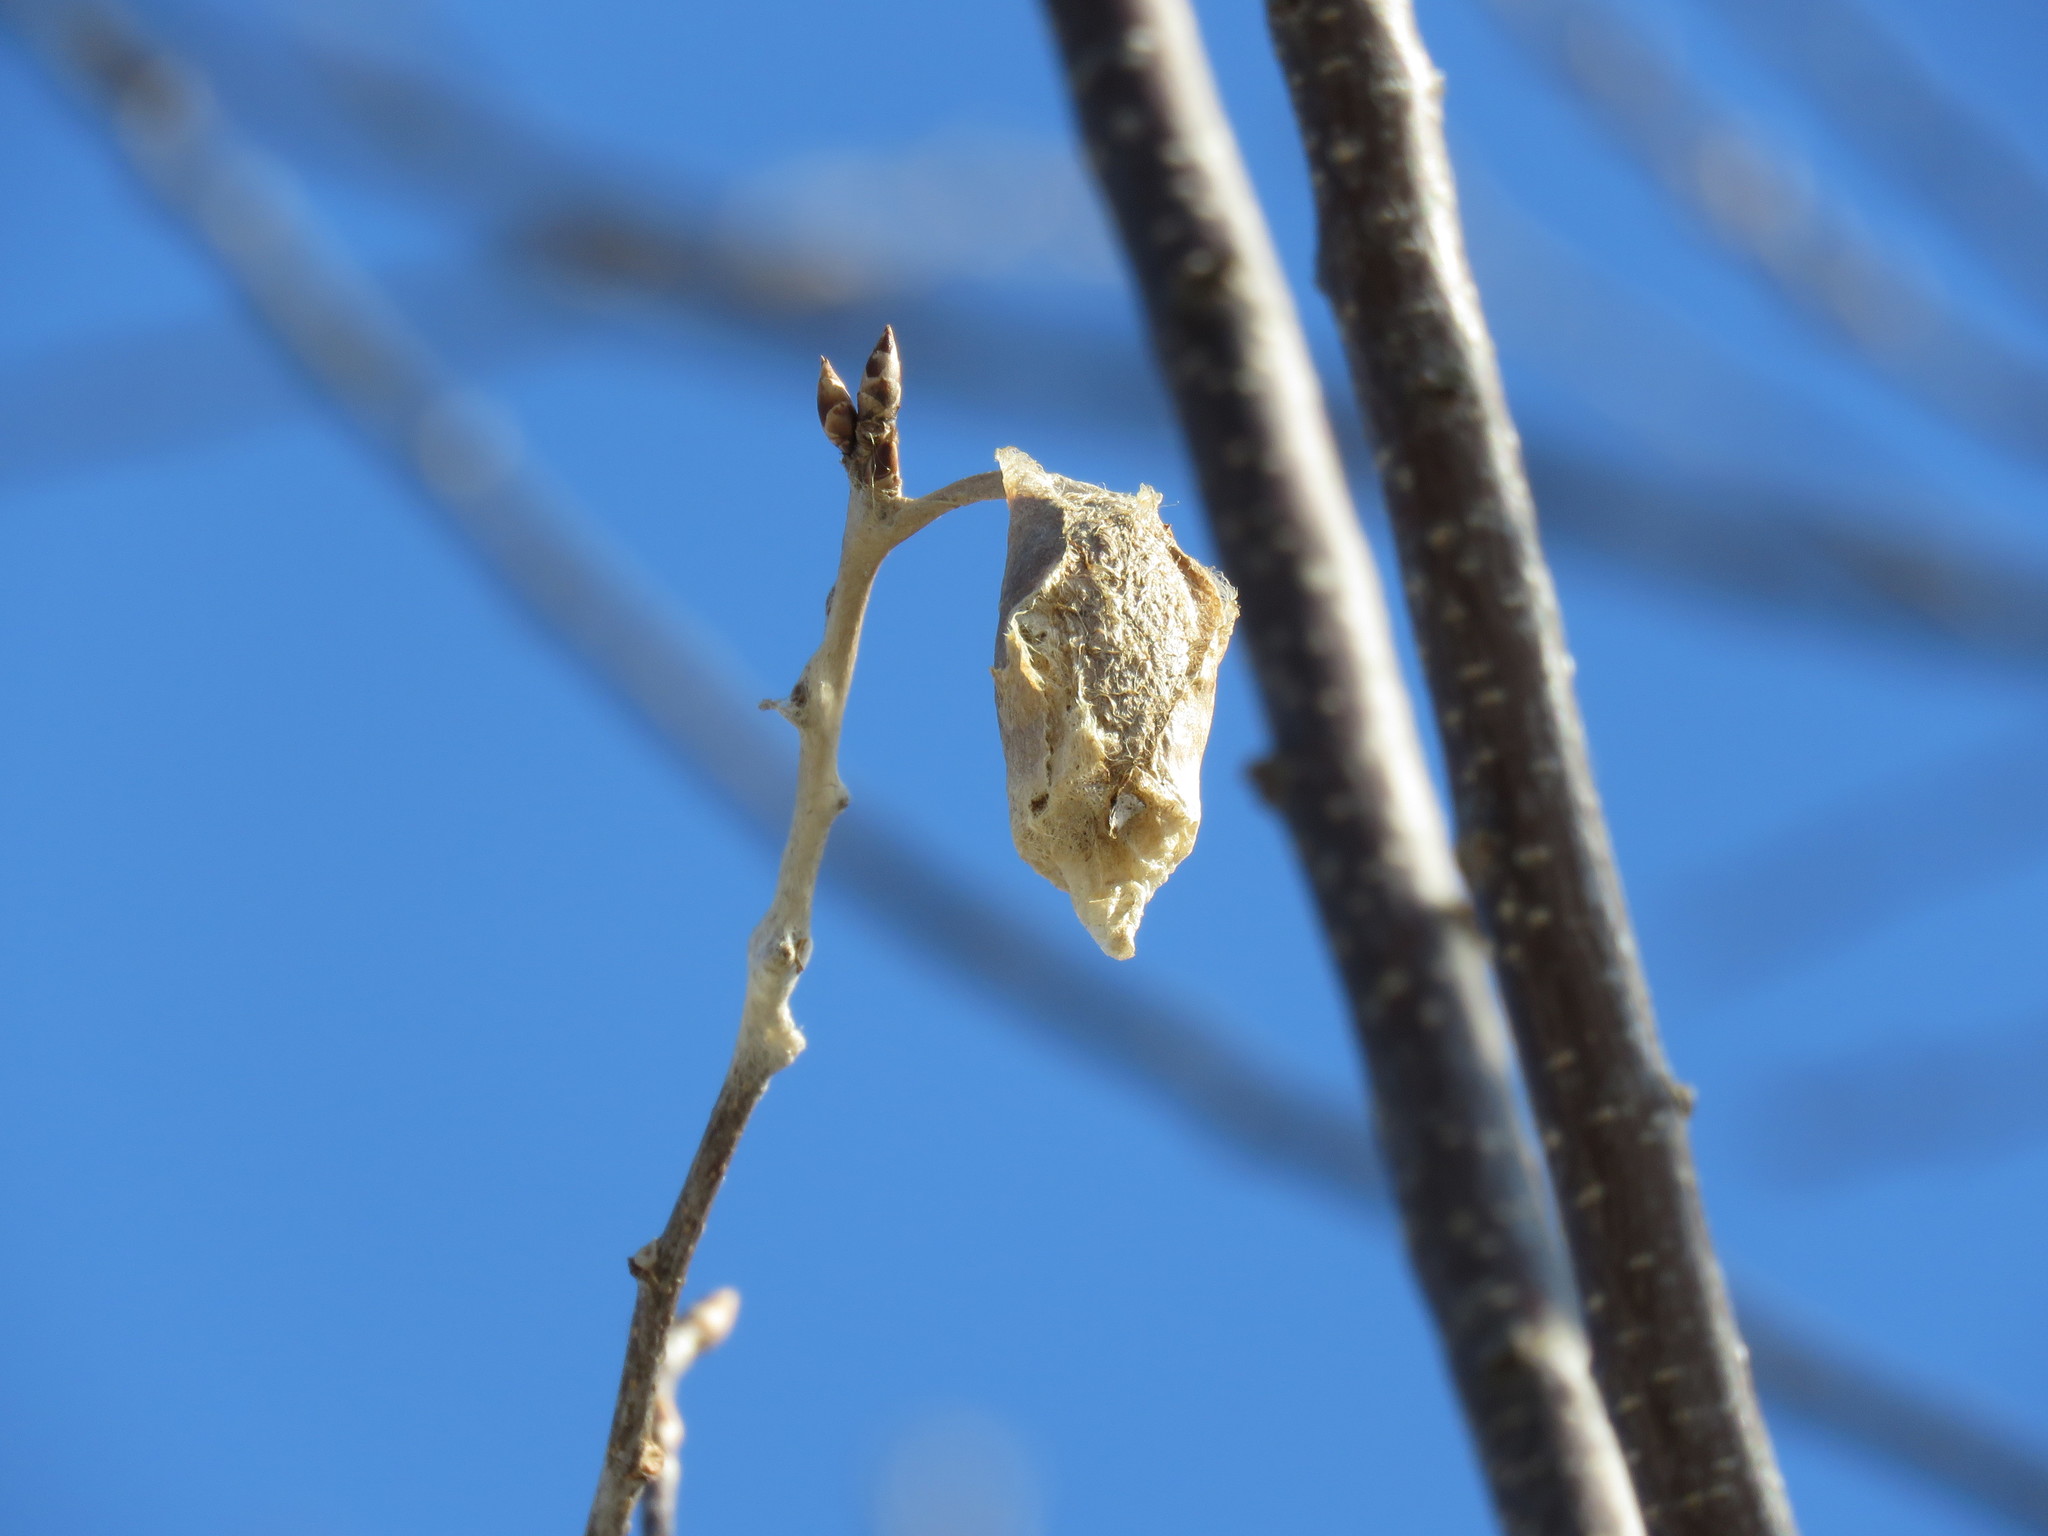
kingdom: Animalia
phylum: Arthropoda
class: Insecta
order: Lepidoptera
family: Saturniidae
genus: Callosamia
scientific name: Callosamia promethea
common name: Promethea silkmoth
